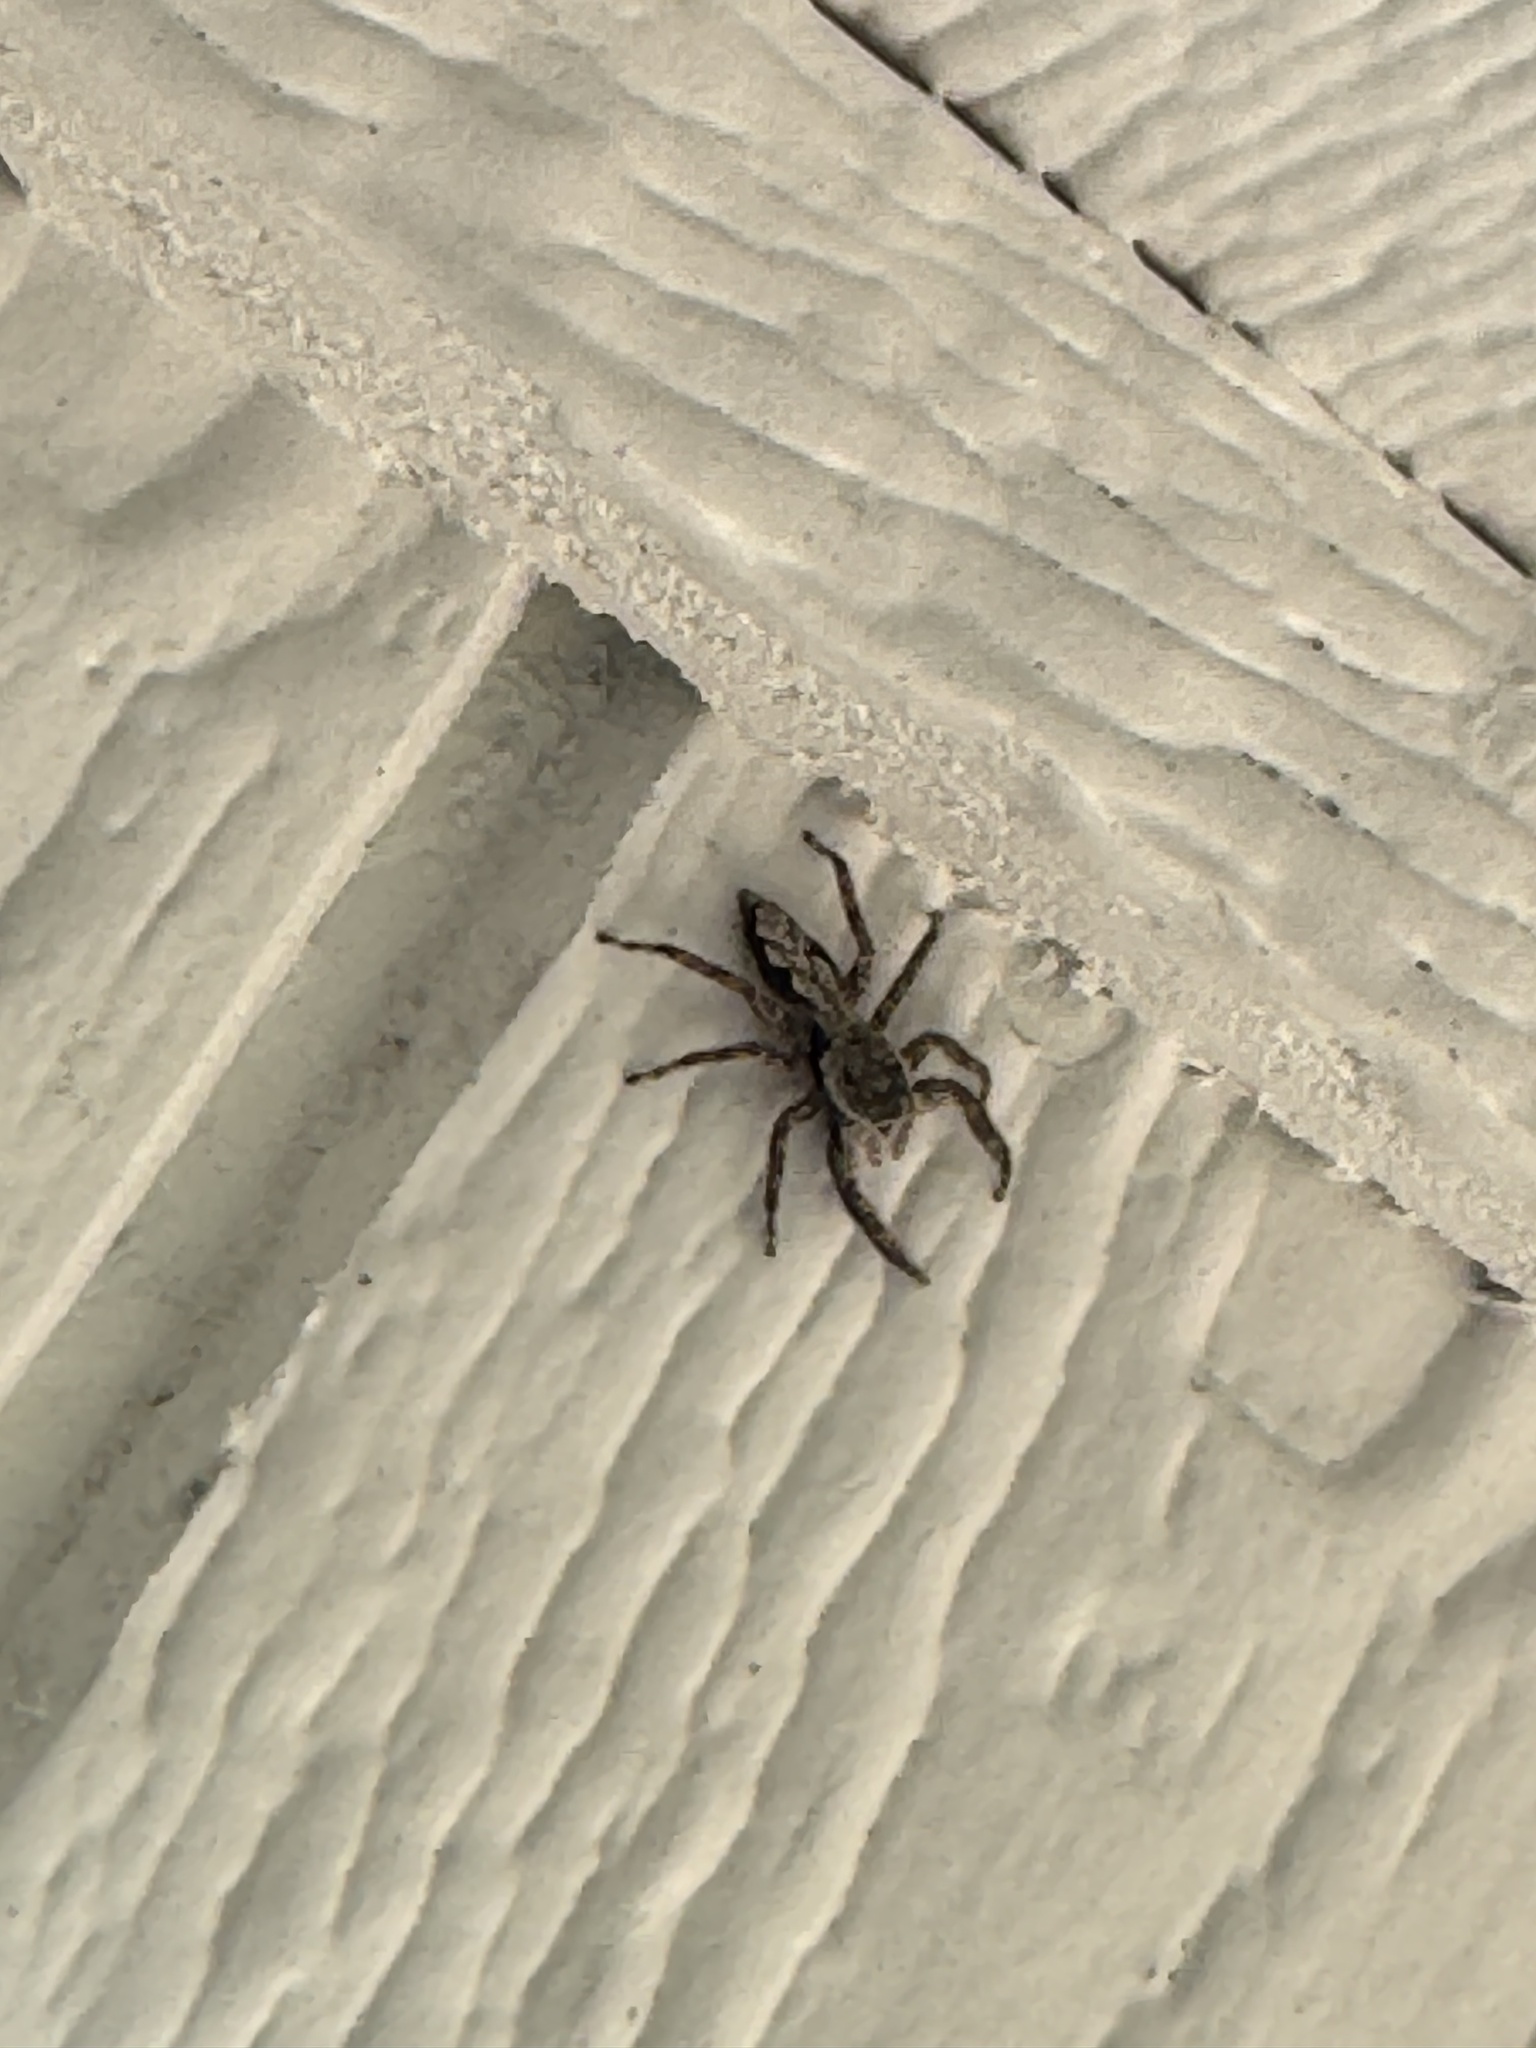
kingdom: Animalia
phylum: Arthropoda
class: Arachnida
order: Araneae
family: Salticidae
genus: Platycryptus
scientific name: Platycryptus undatus
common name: Tan jumping spider
